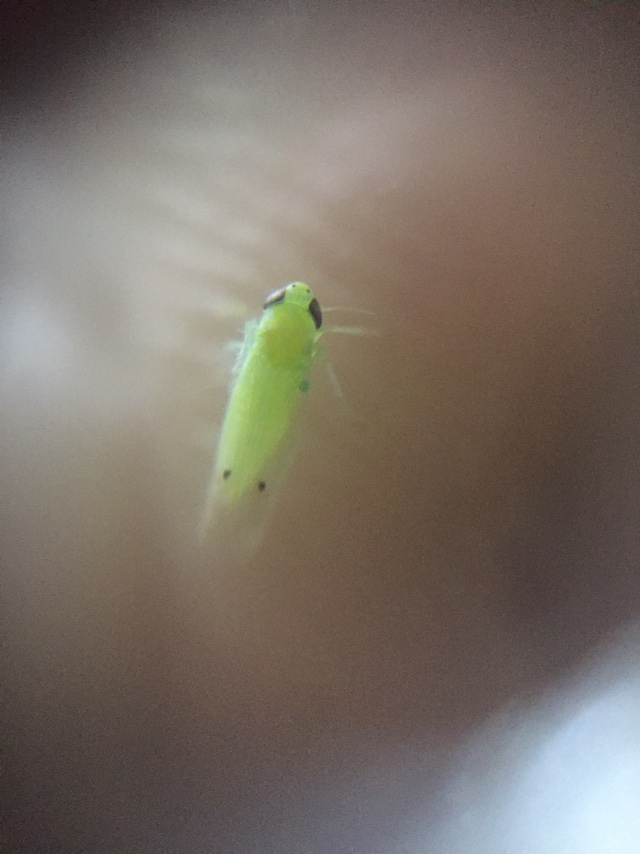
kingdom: Animalia
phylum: Arthropoda
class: Insecta
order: Hemiptera
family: Cicadellidae
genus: Amrasca
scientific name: Amrasca biguttula
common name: Indian cotton jassid
